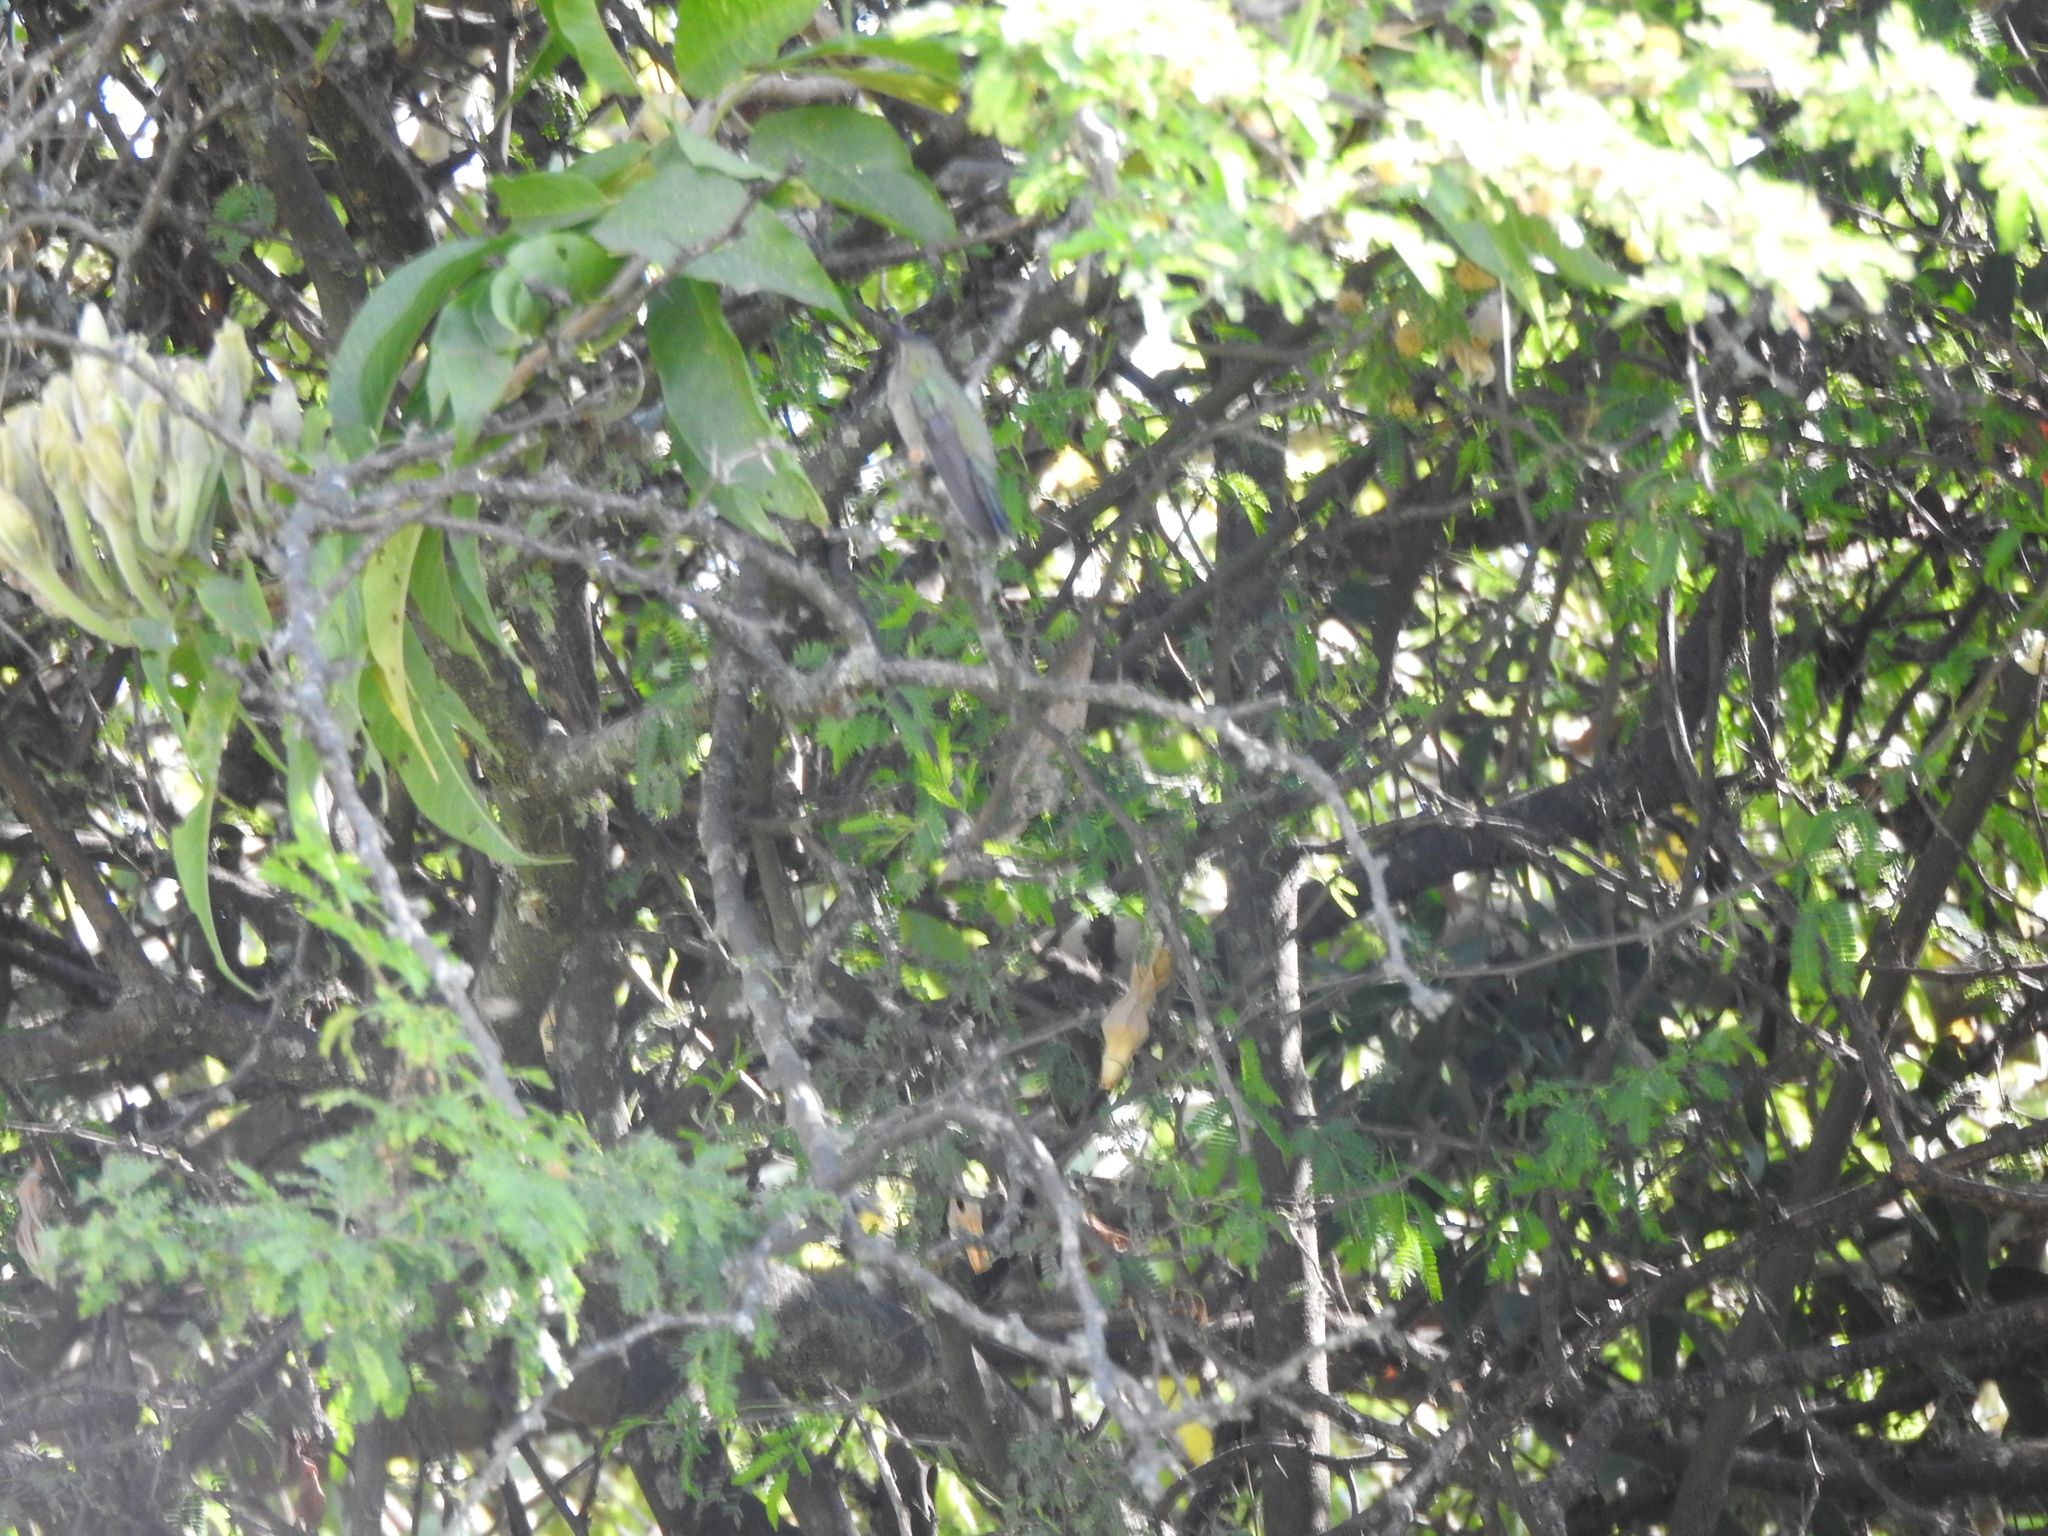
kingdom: Animalia
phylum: Chordata
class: Aves
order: Apodiformes
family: Trochilidae
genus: Lampornis
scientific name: Lampornis clemenciae
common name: Blue-throated mountaingem
